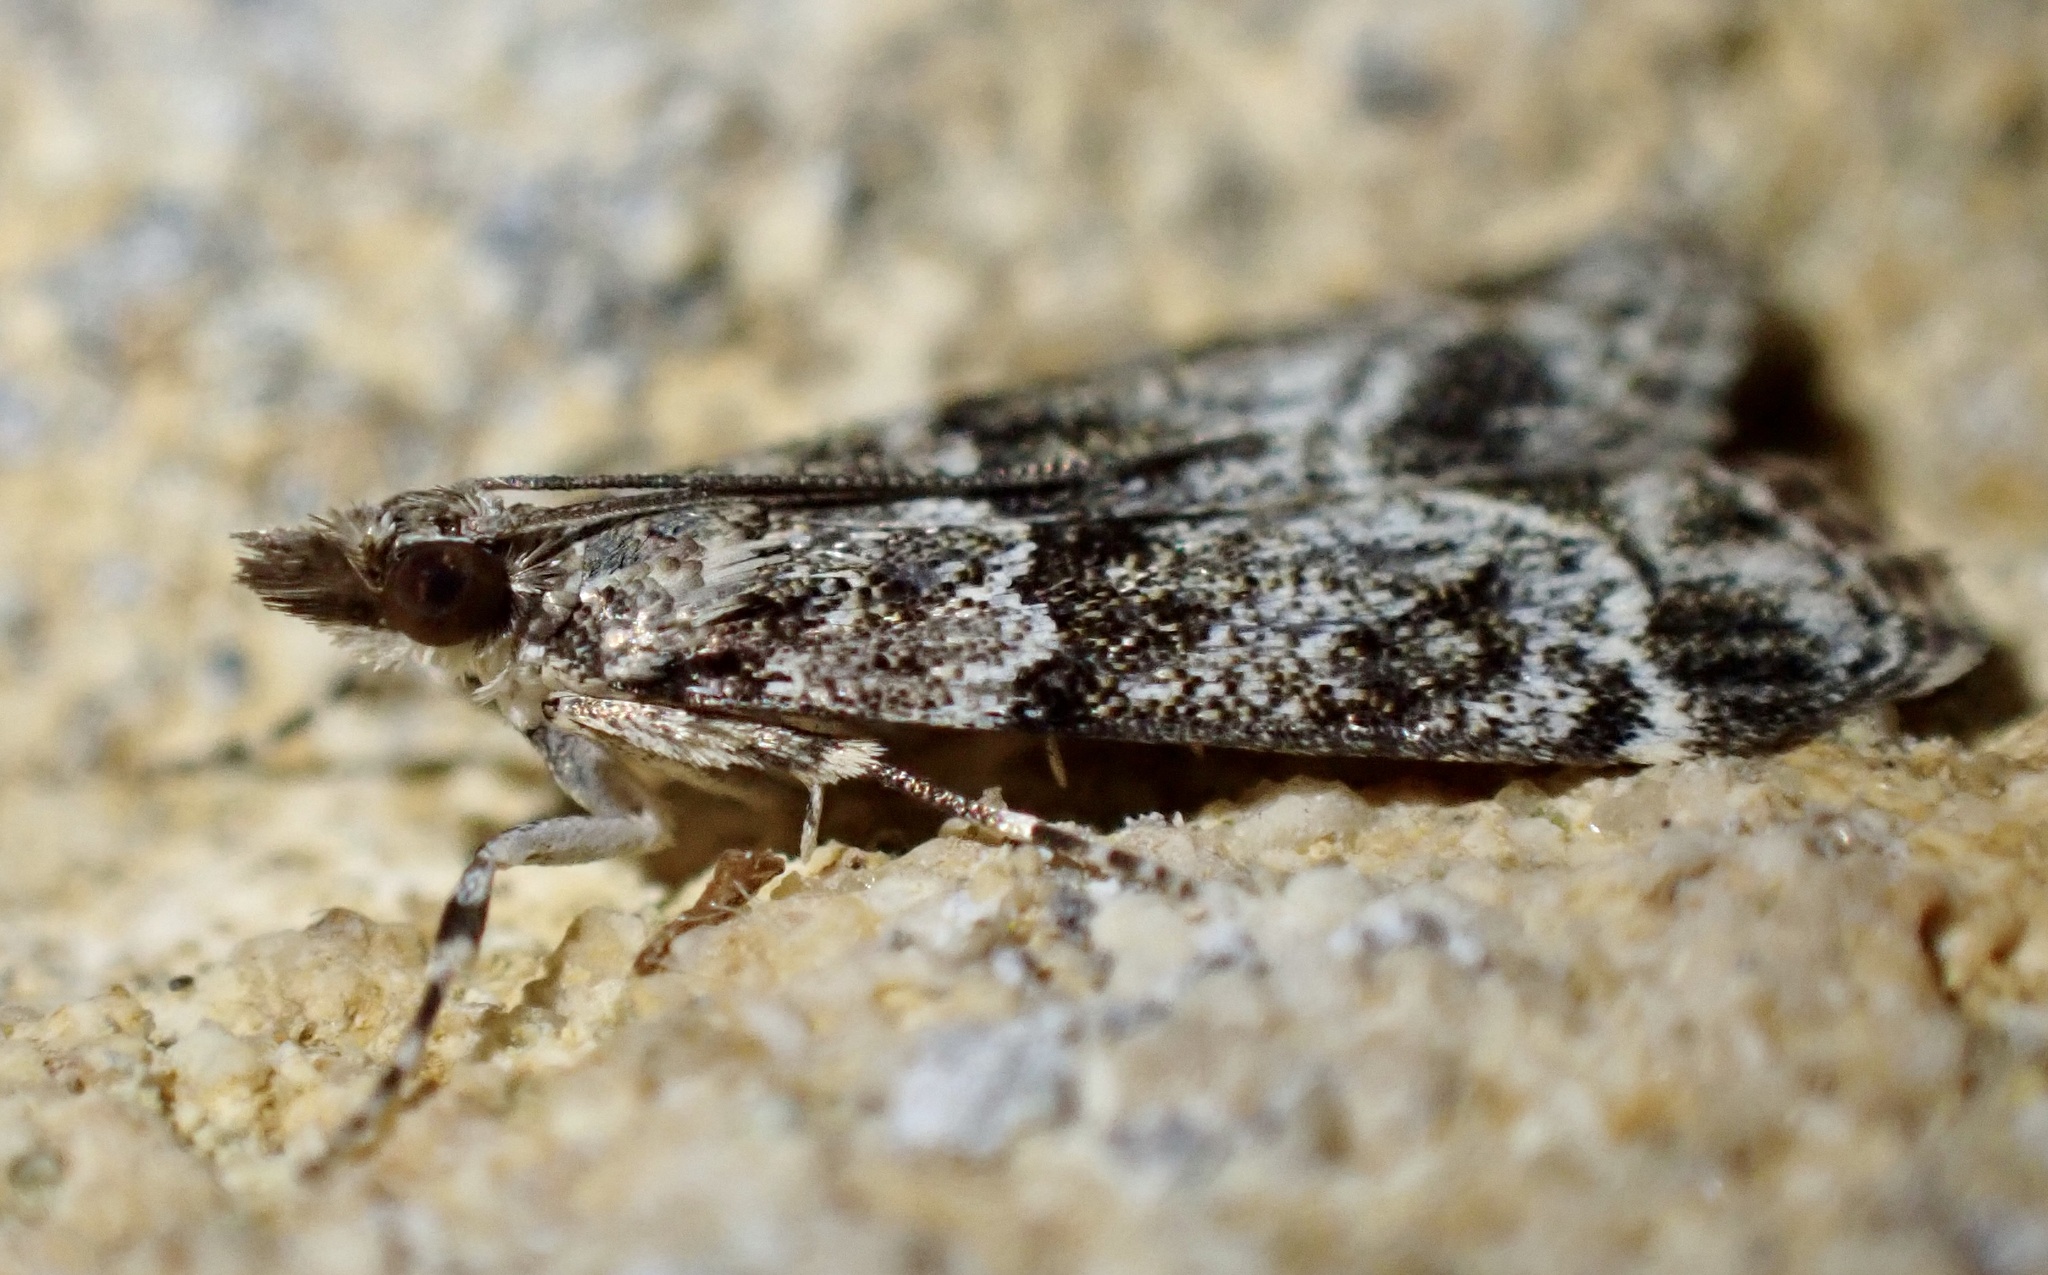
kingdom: Animalia
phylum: Arthropoda
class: Insecta
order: Lepidoptera
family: Crambidae
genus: Eudonia
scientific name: Eudonia mercurella
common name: Small grey
